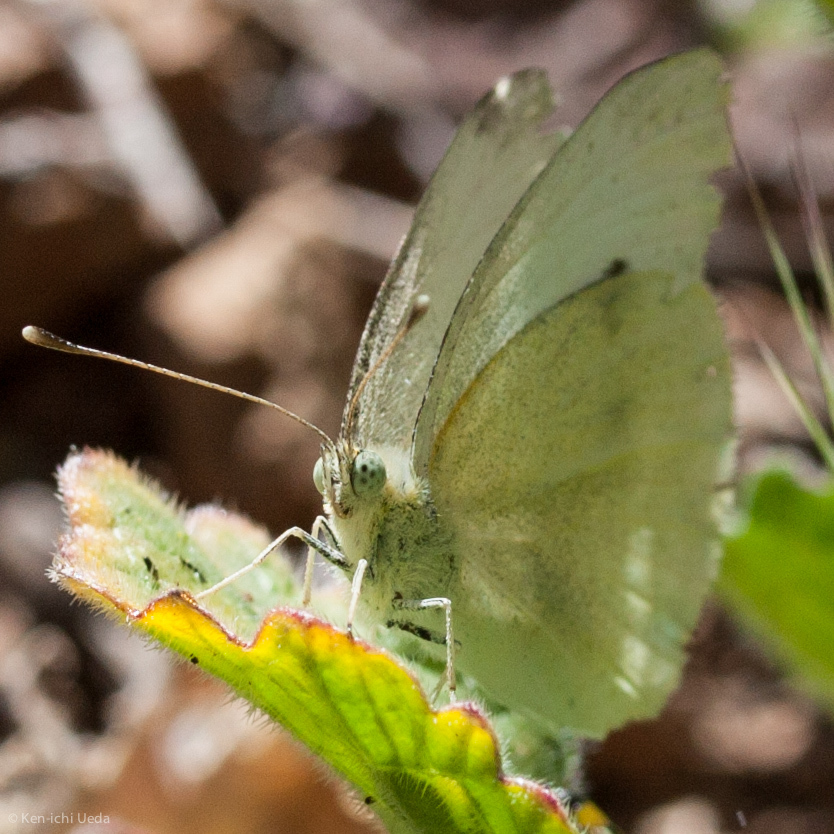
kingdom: Animalia
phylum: Arthropoda
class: Insecta
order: Lepidoptera
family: Pieridae
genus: Pieris
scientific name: Pieris rapae
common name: Small white
